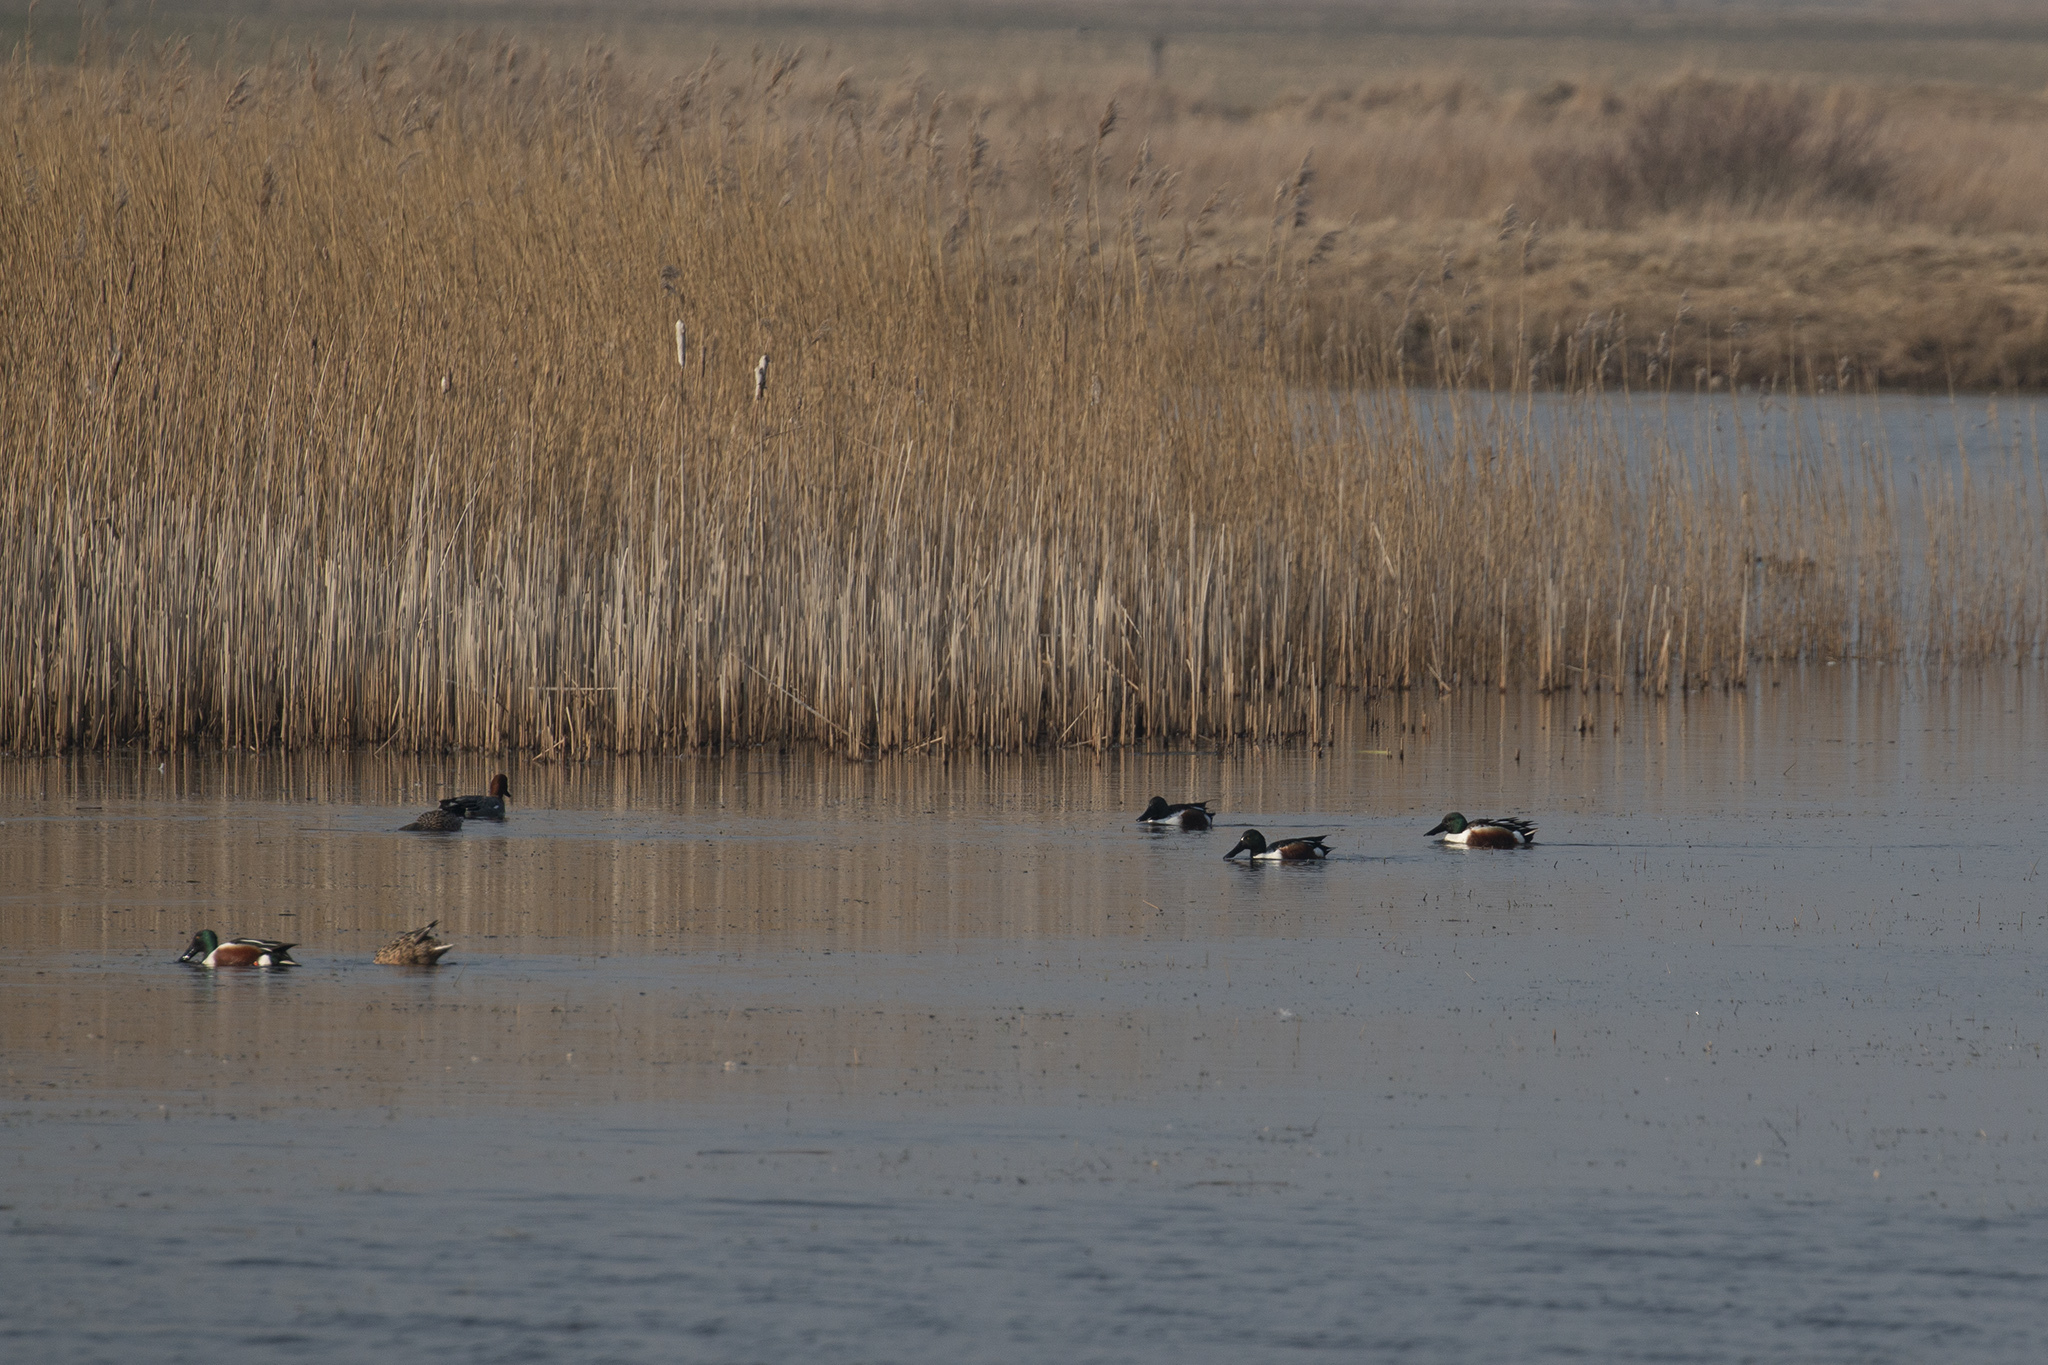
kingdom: Animalia
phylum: Chordata
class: Aves
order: Anseriformes
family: Anatidae
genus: Spatula
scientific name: Spatula clypeata
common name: Northern shoveler
